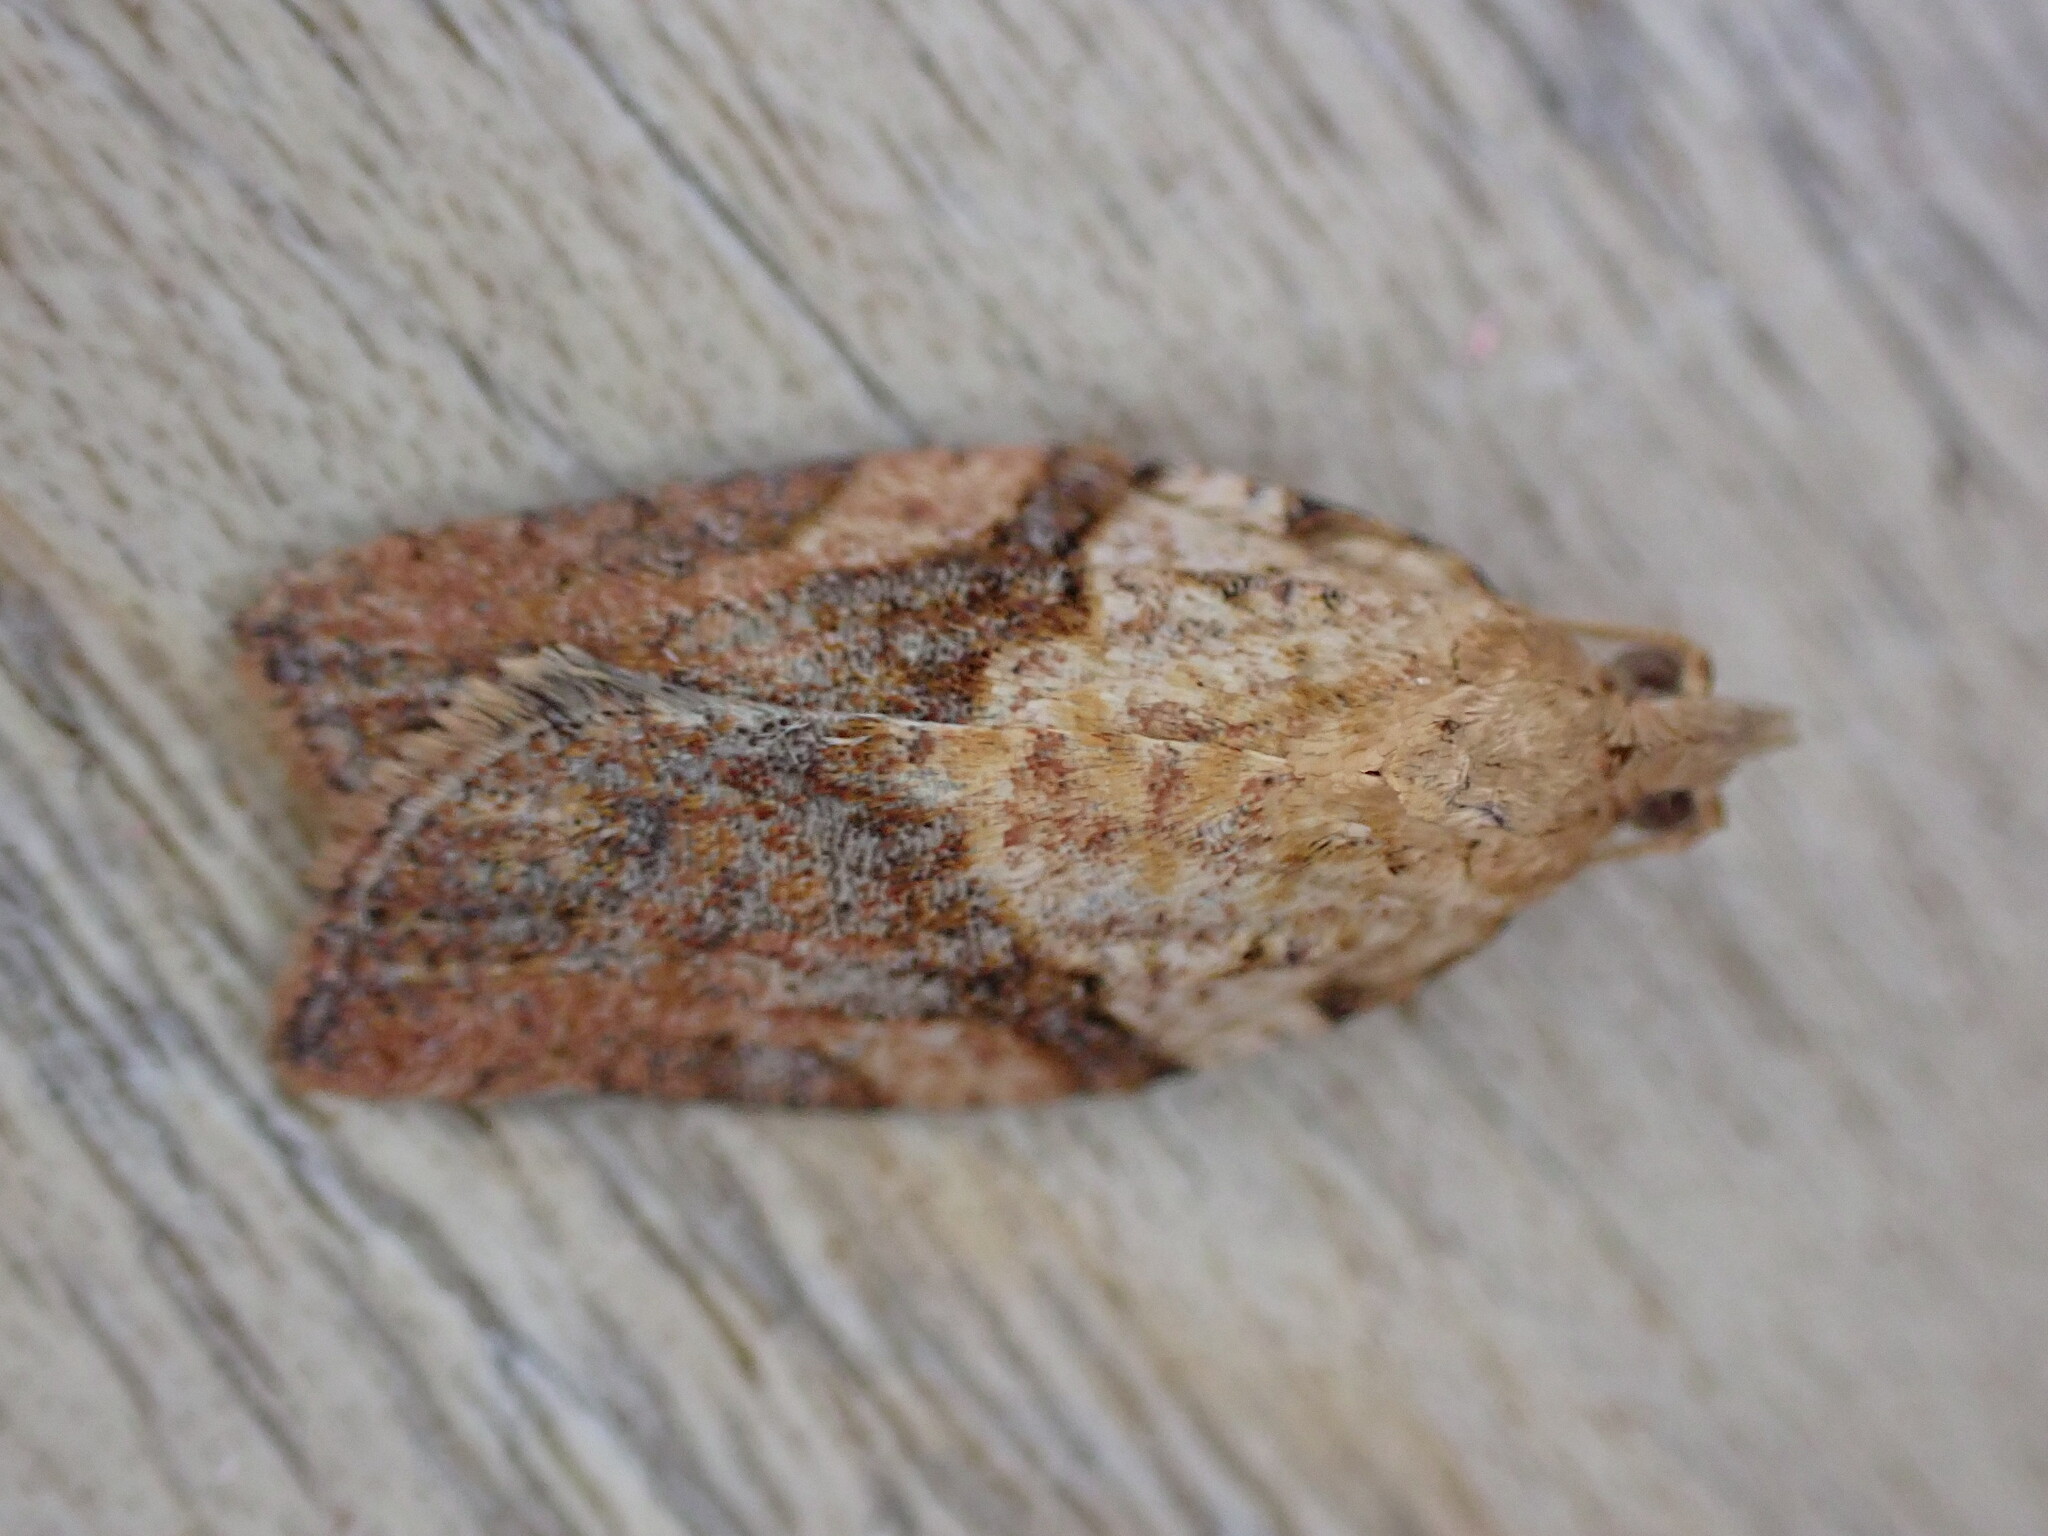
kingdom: Animalia
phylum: Arthropoda
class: Insecta
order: Lepidoptera
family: Tortricidae
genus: Epiphyas
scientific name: Epiphyas postvittana
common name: Light brown apple moth
